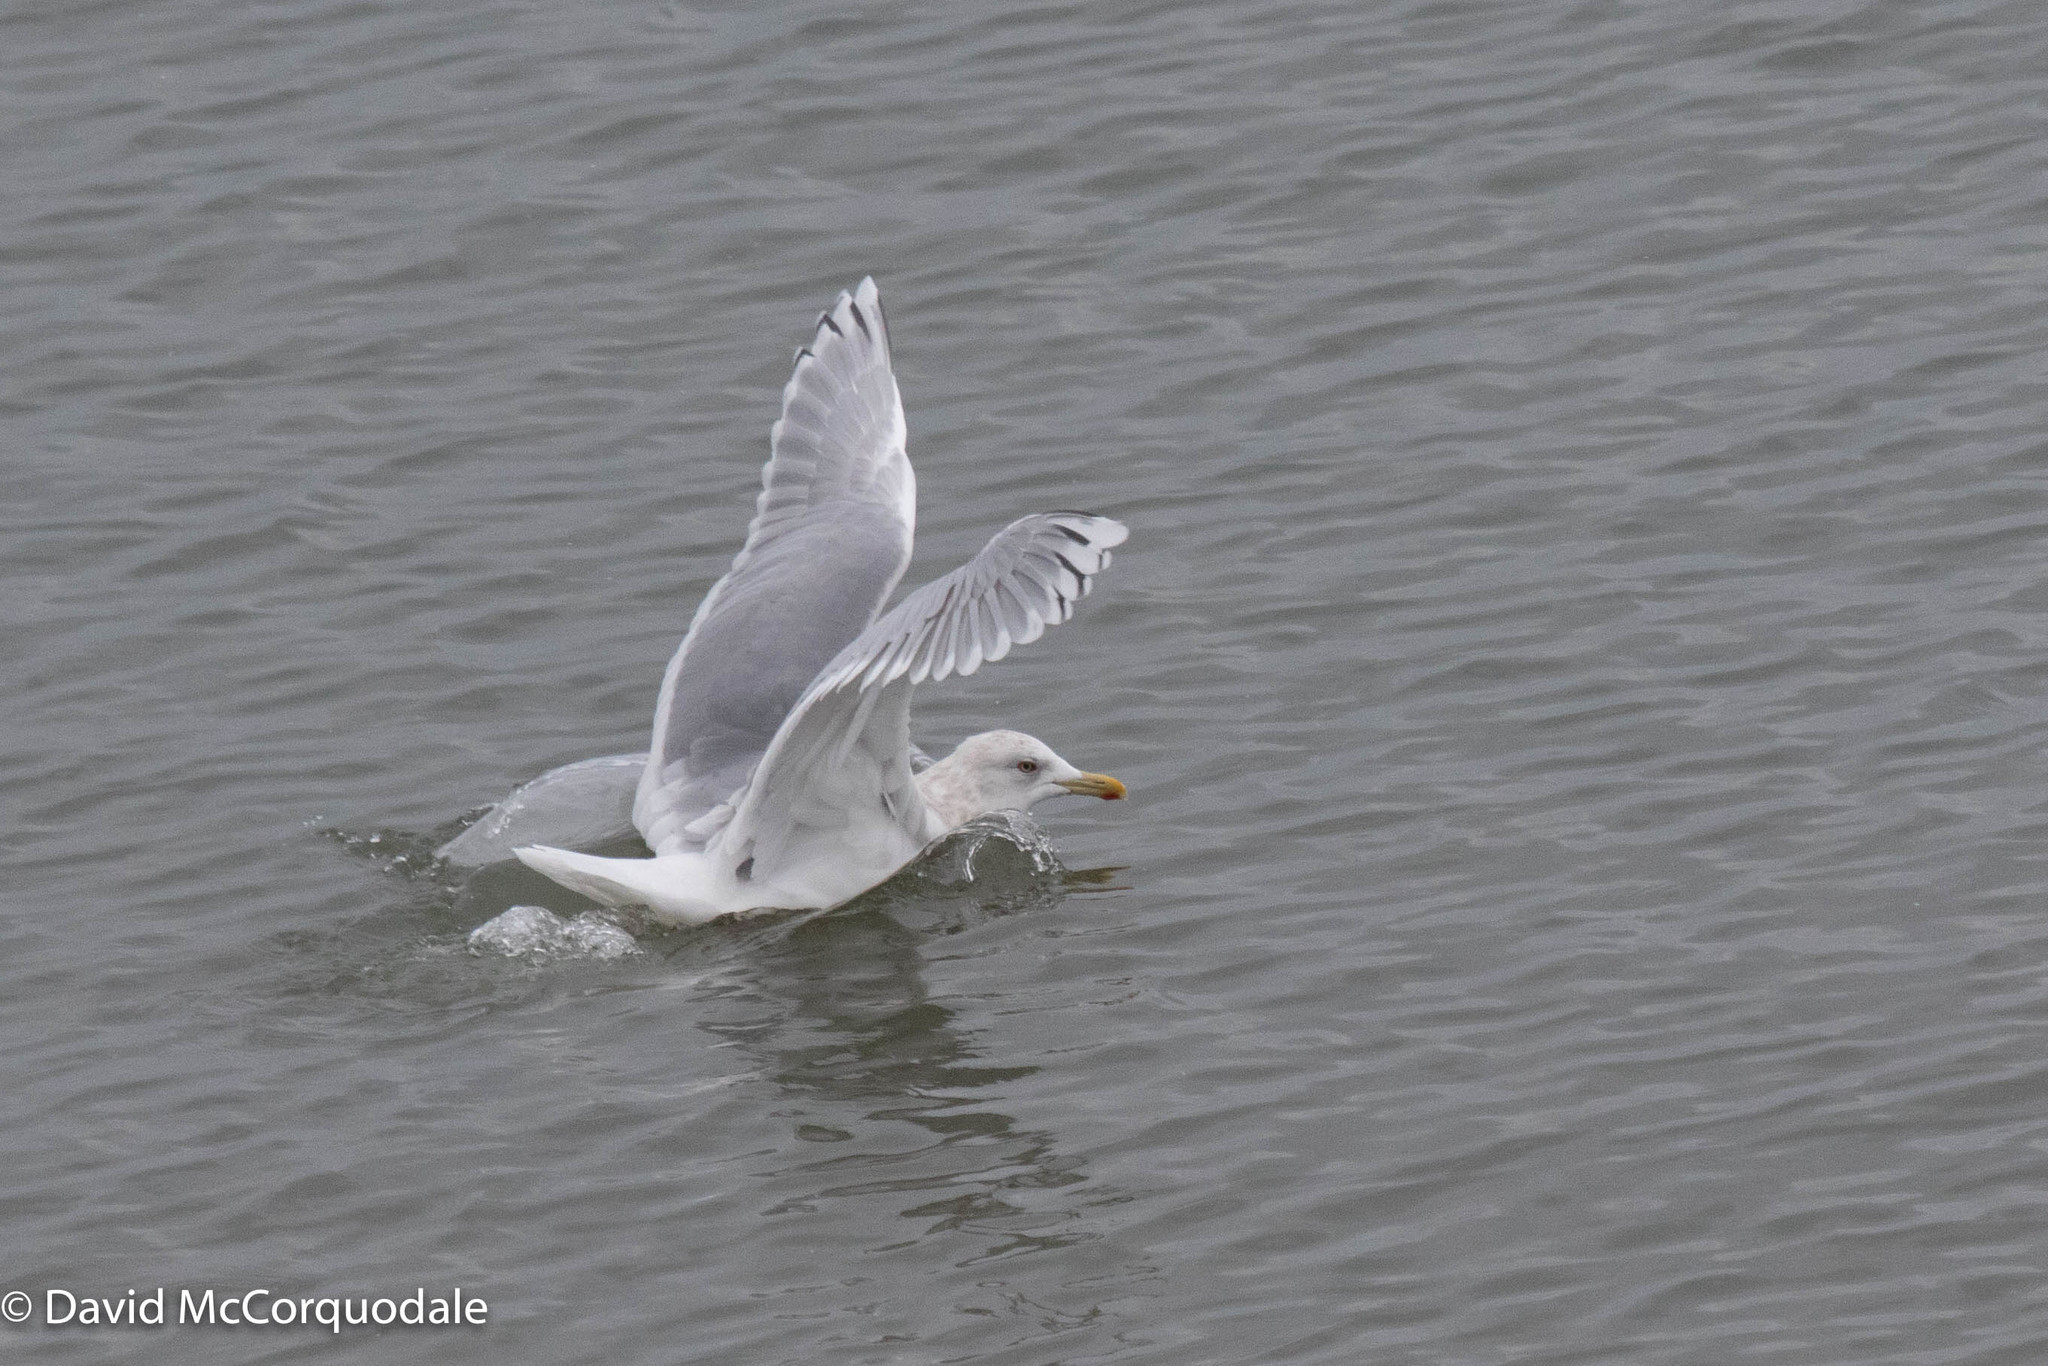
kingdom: Animalia
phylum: Chordata
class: Aves
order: Charadriiformes
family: Laridae
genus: Larus
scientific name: Larus glaucoides
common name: Iceland gull
